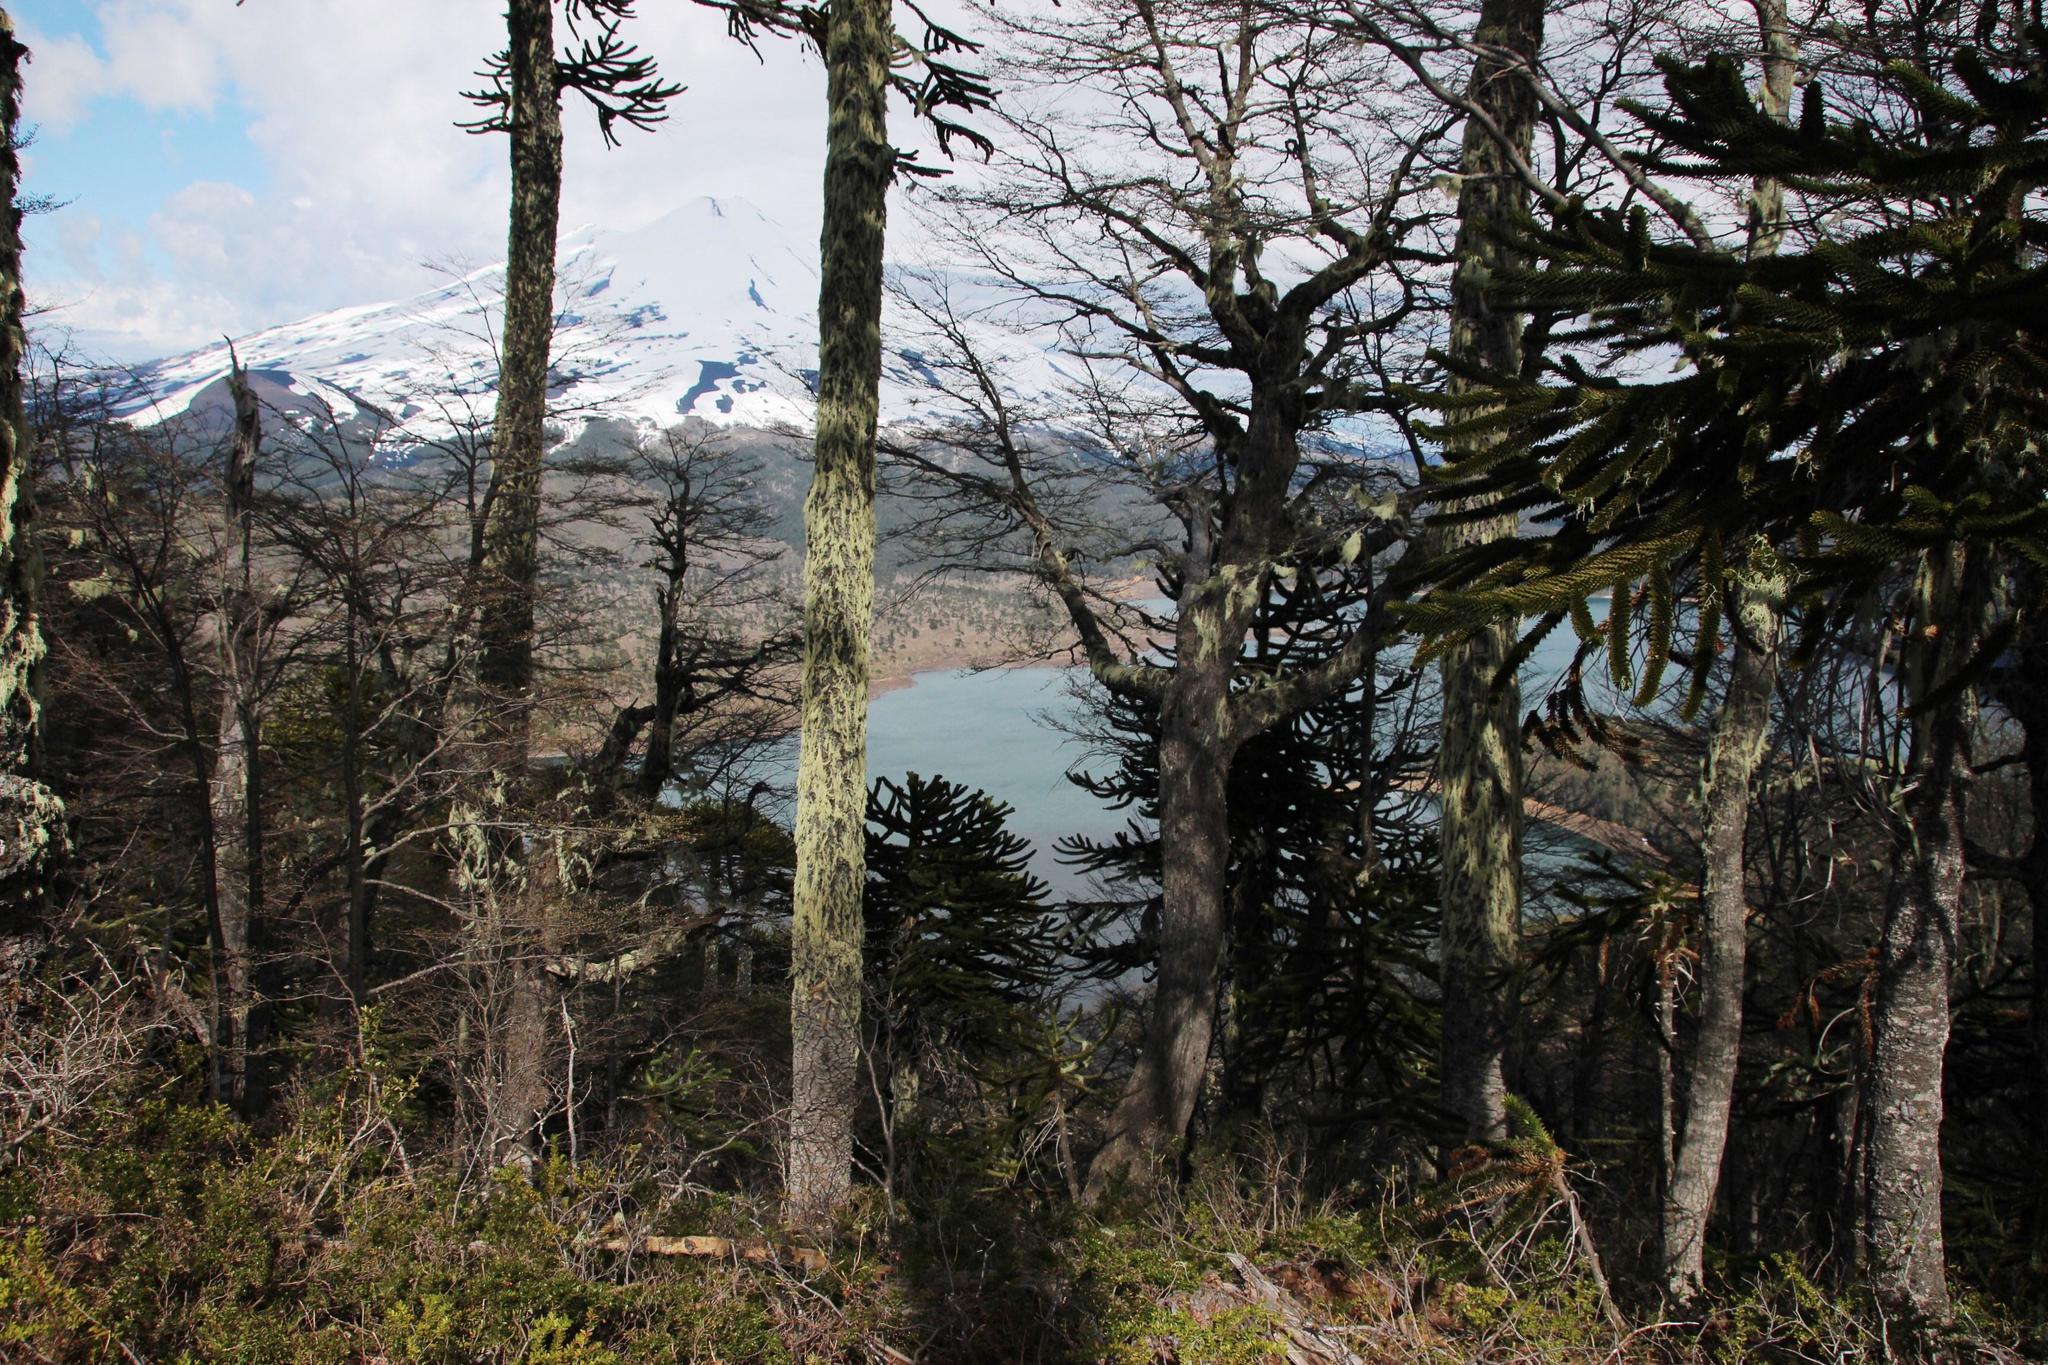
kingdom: Plantae
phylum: Tracheophyta
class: Pinopsida
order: Pinales
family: Araucariaceae
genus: Araucaria
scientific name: Araucaria araucana
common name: Monkey-puzzle
